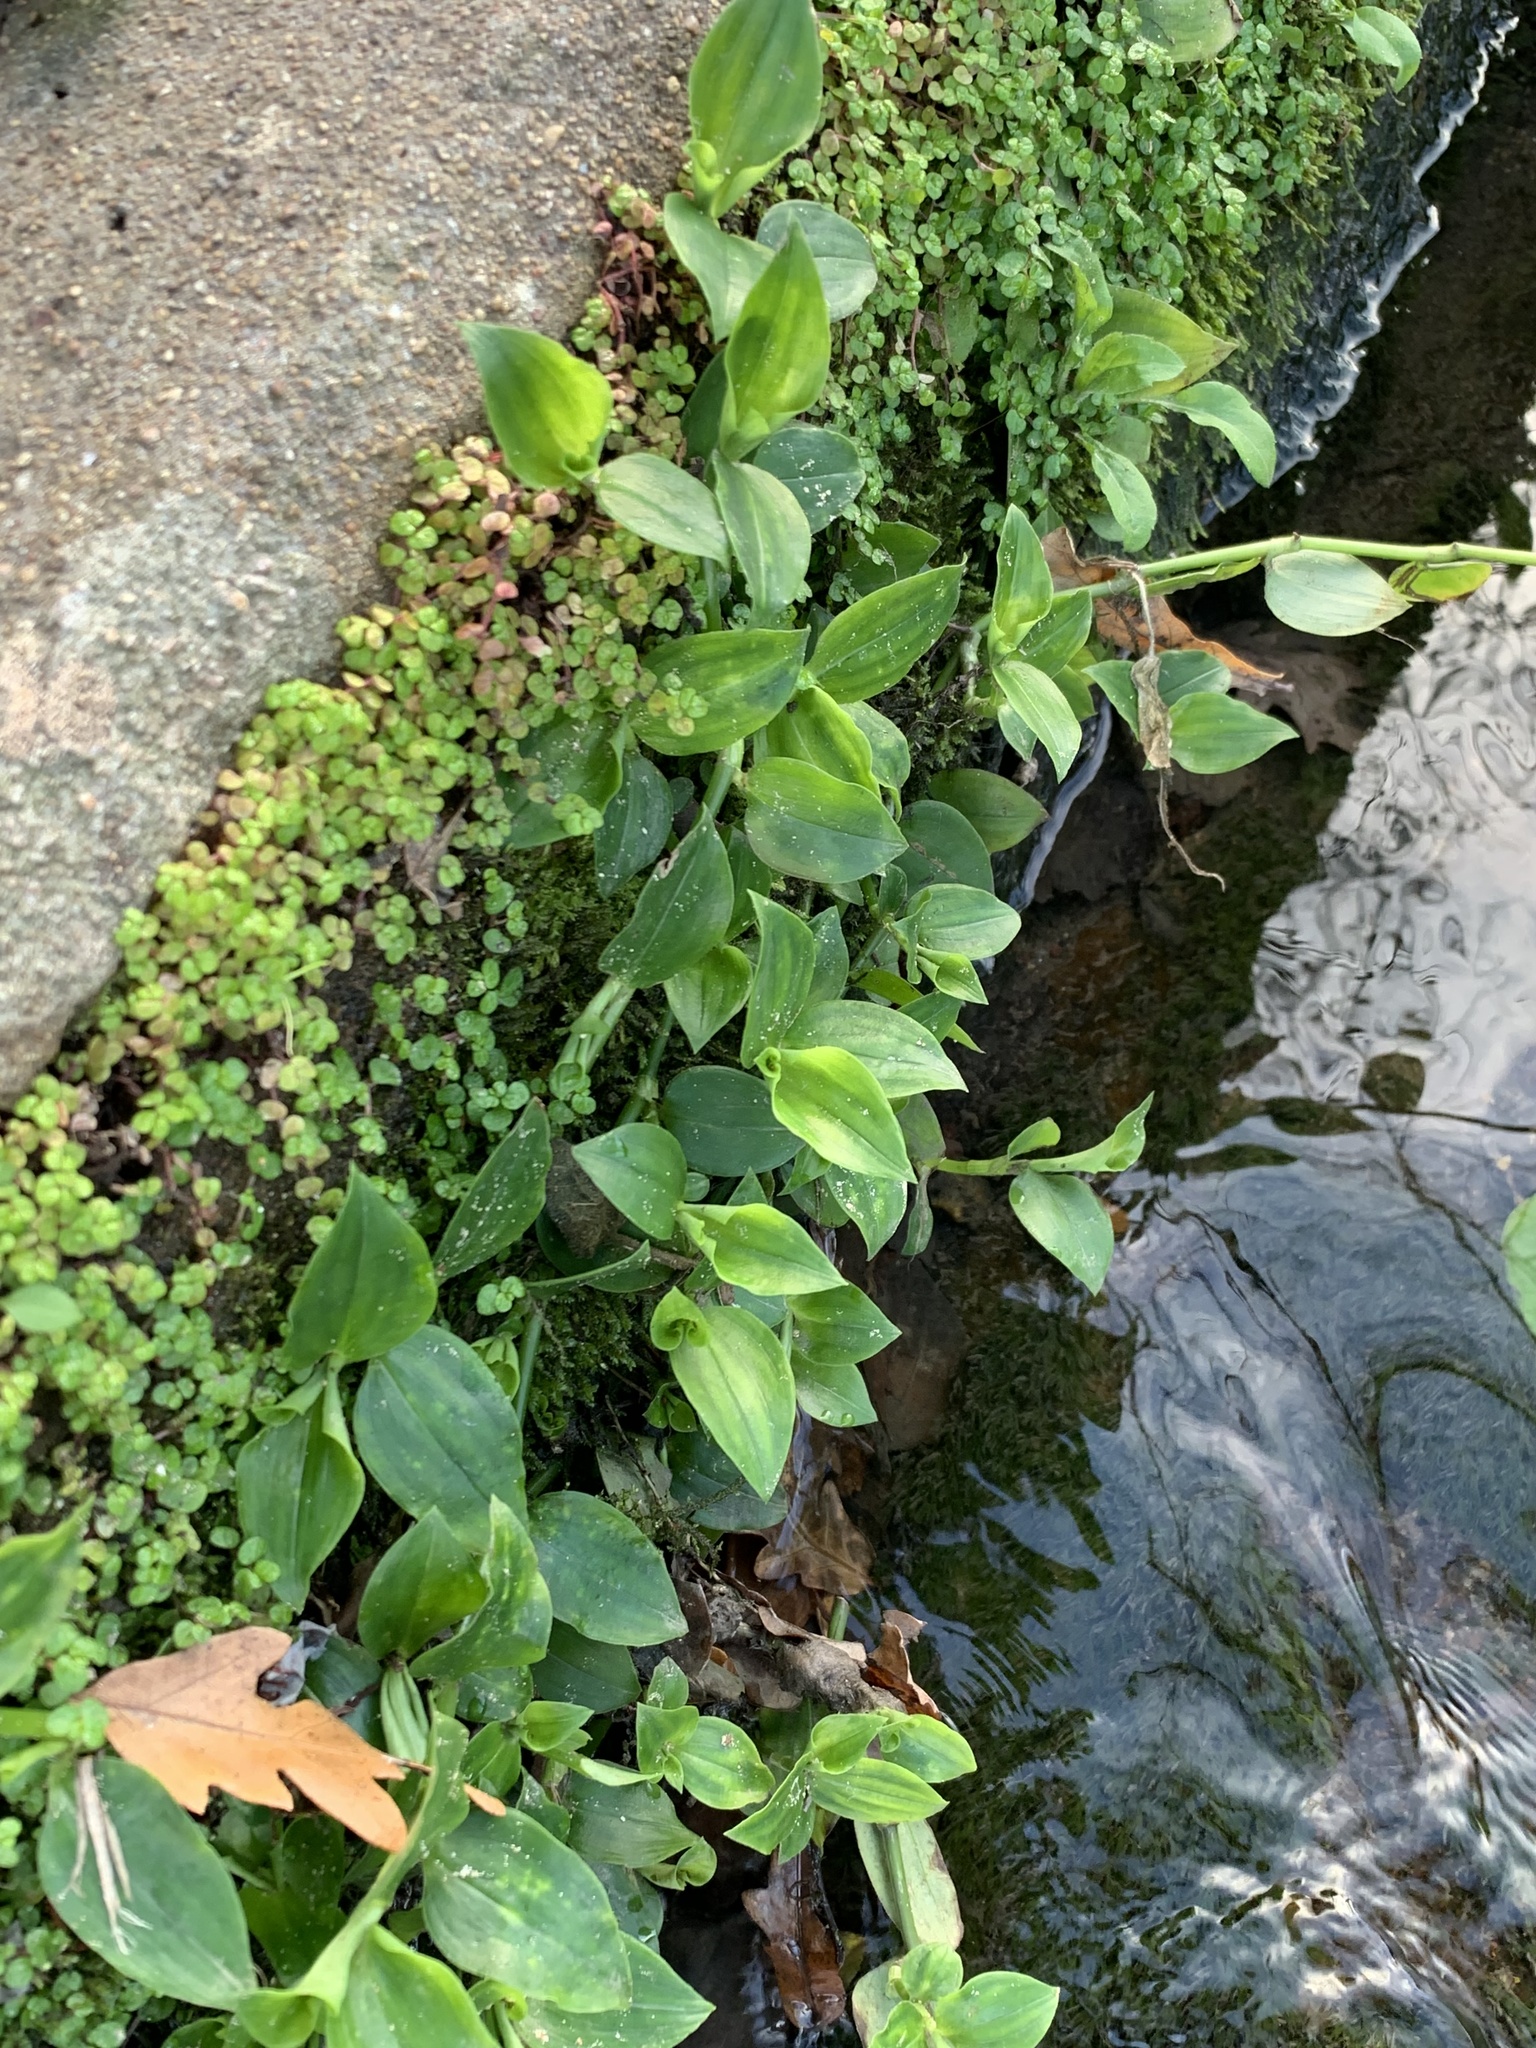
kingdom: Plantae
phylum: Tracheophyta
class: Liliopsida
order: Commelinales
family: Commelinaceae
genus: Tradescantia
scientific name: Tradescantia fluminensis
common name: Wandering-jew
